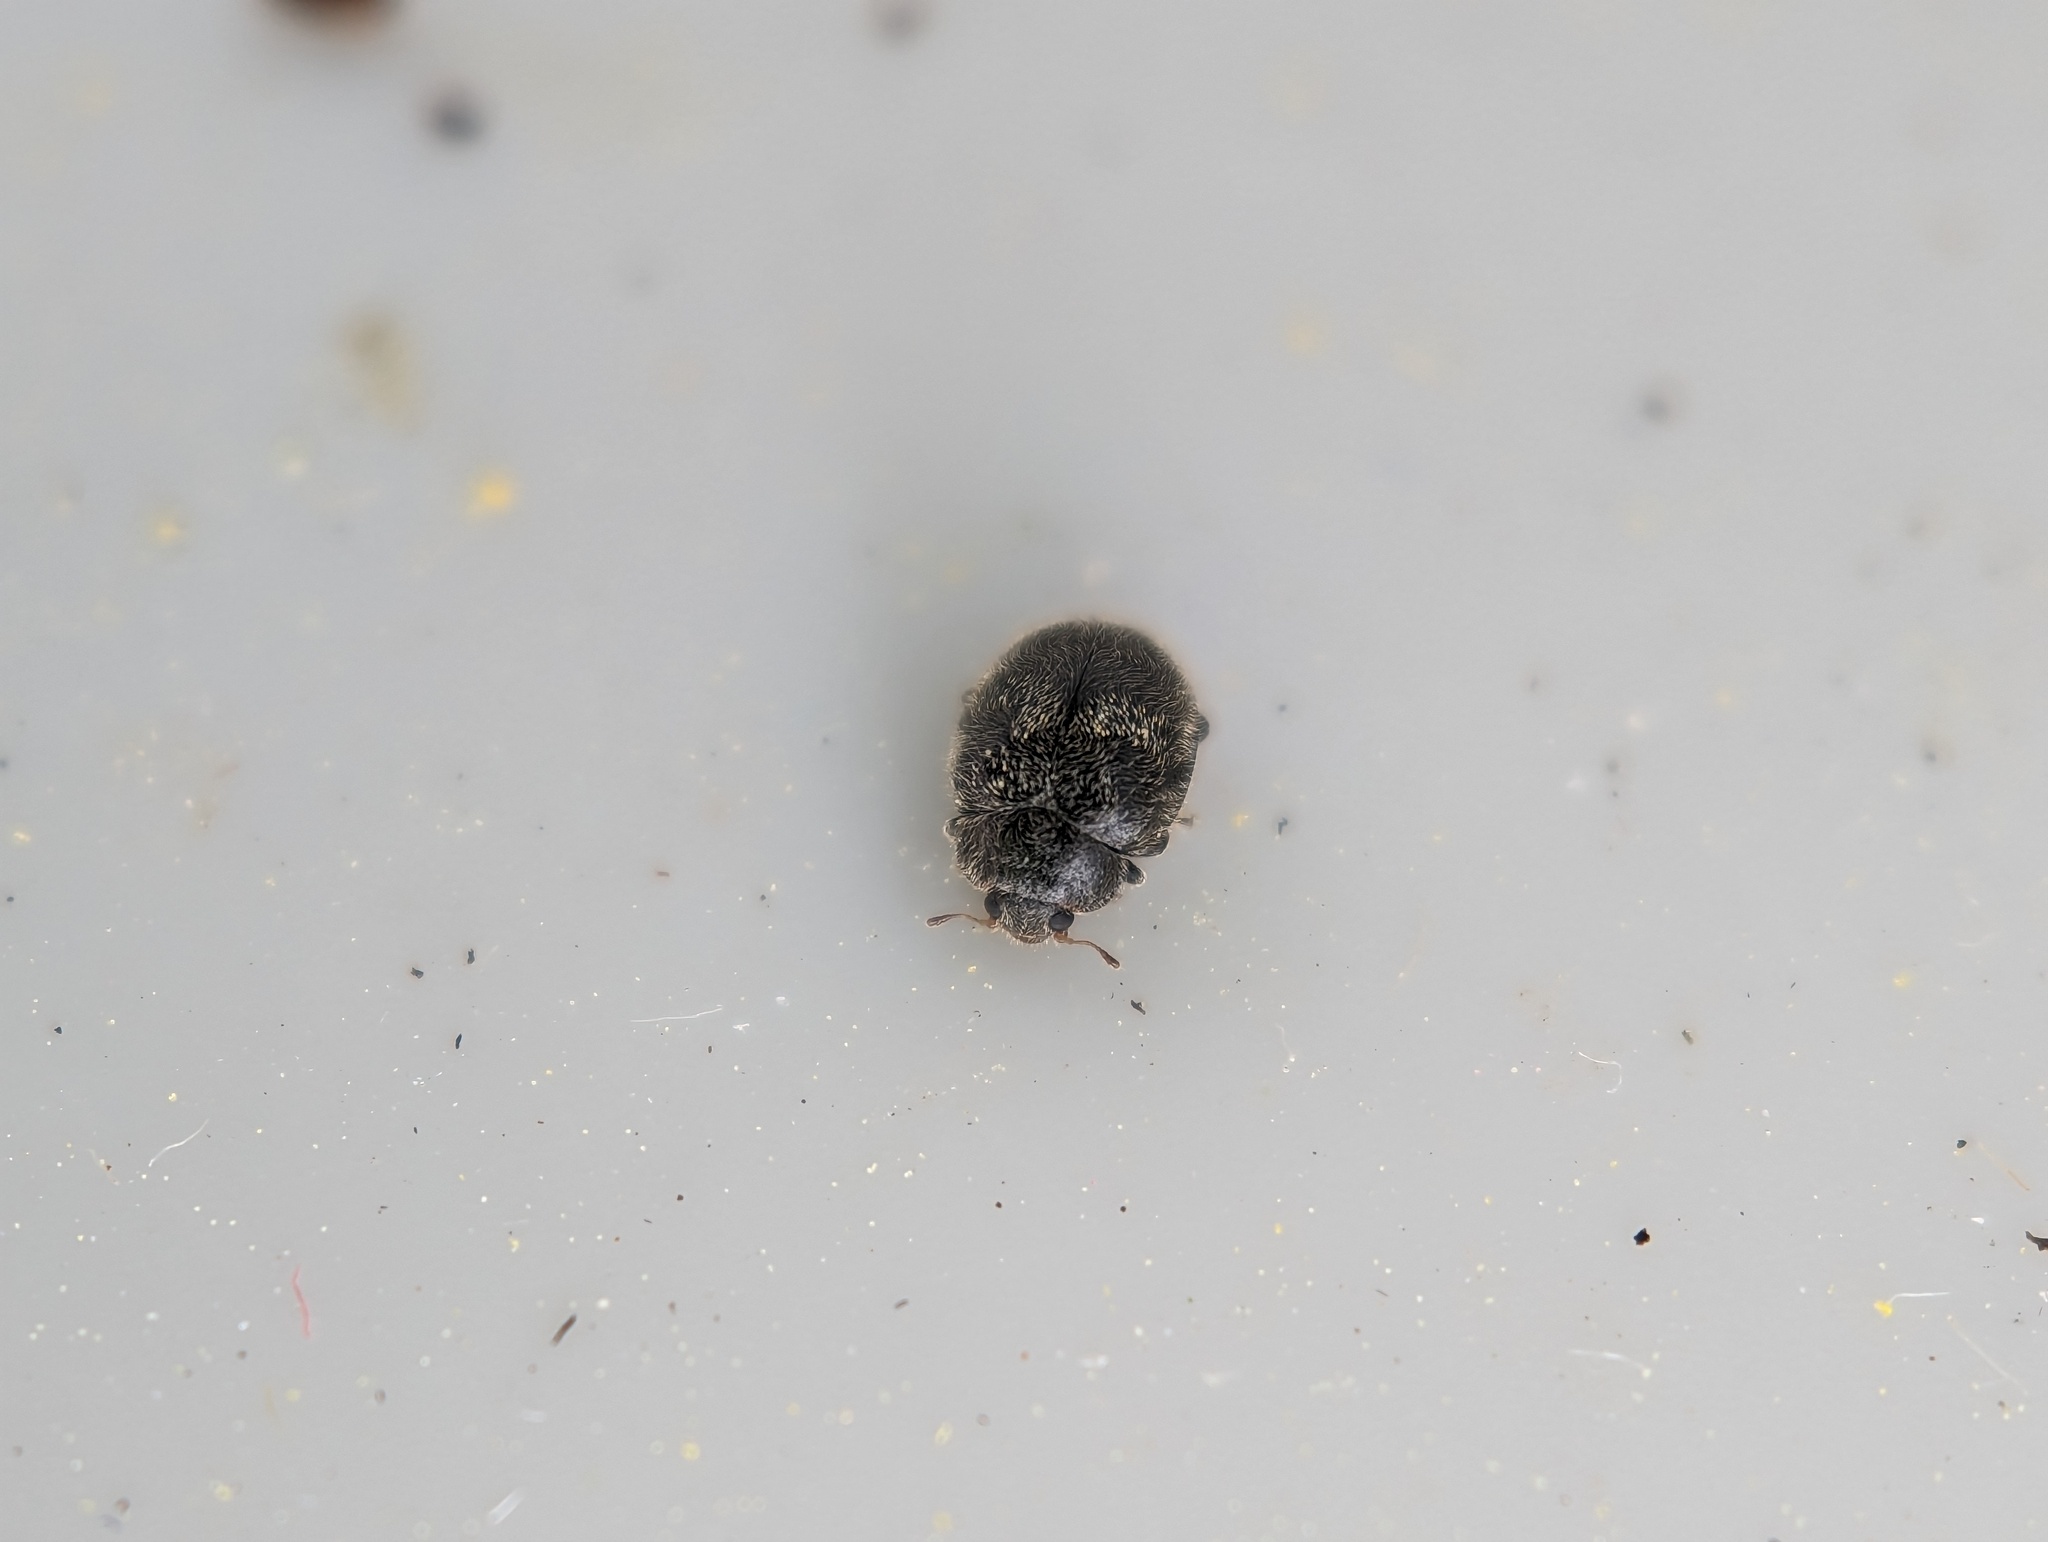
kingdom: Animalia
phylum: Arthropoda
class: Insecta
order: Coleoptera
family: Coccinellidae
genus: Rhyzobius
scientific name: Rhyzobius forestieri
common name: Ladybird beetle
